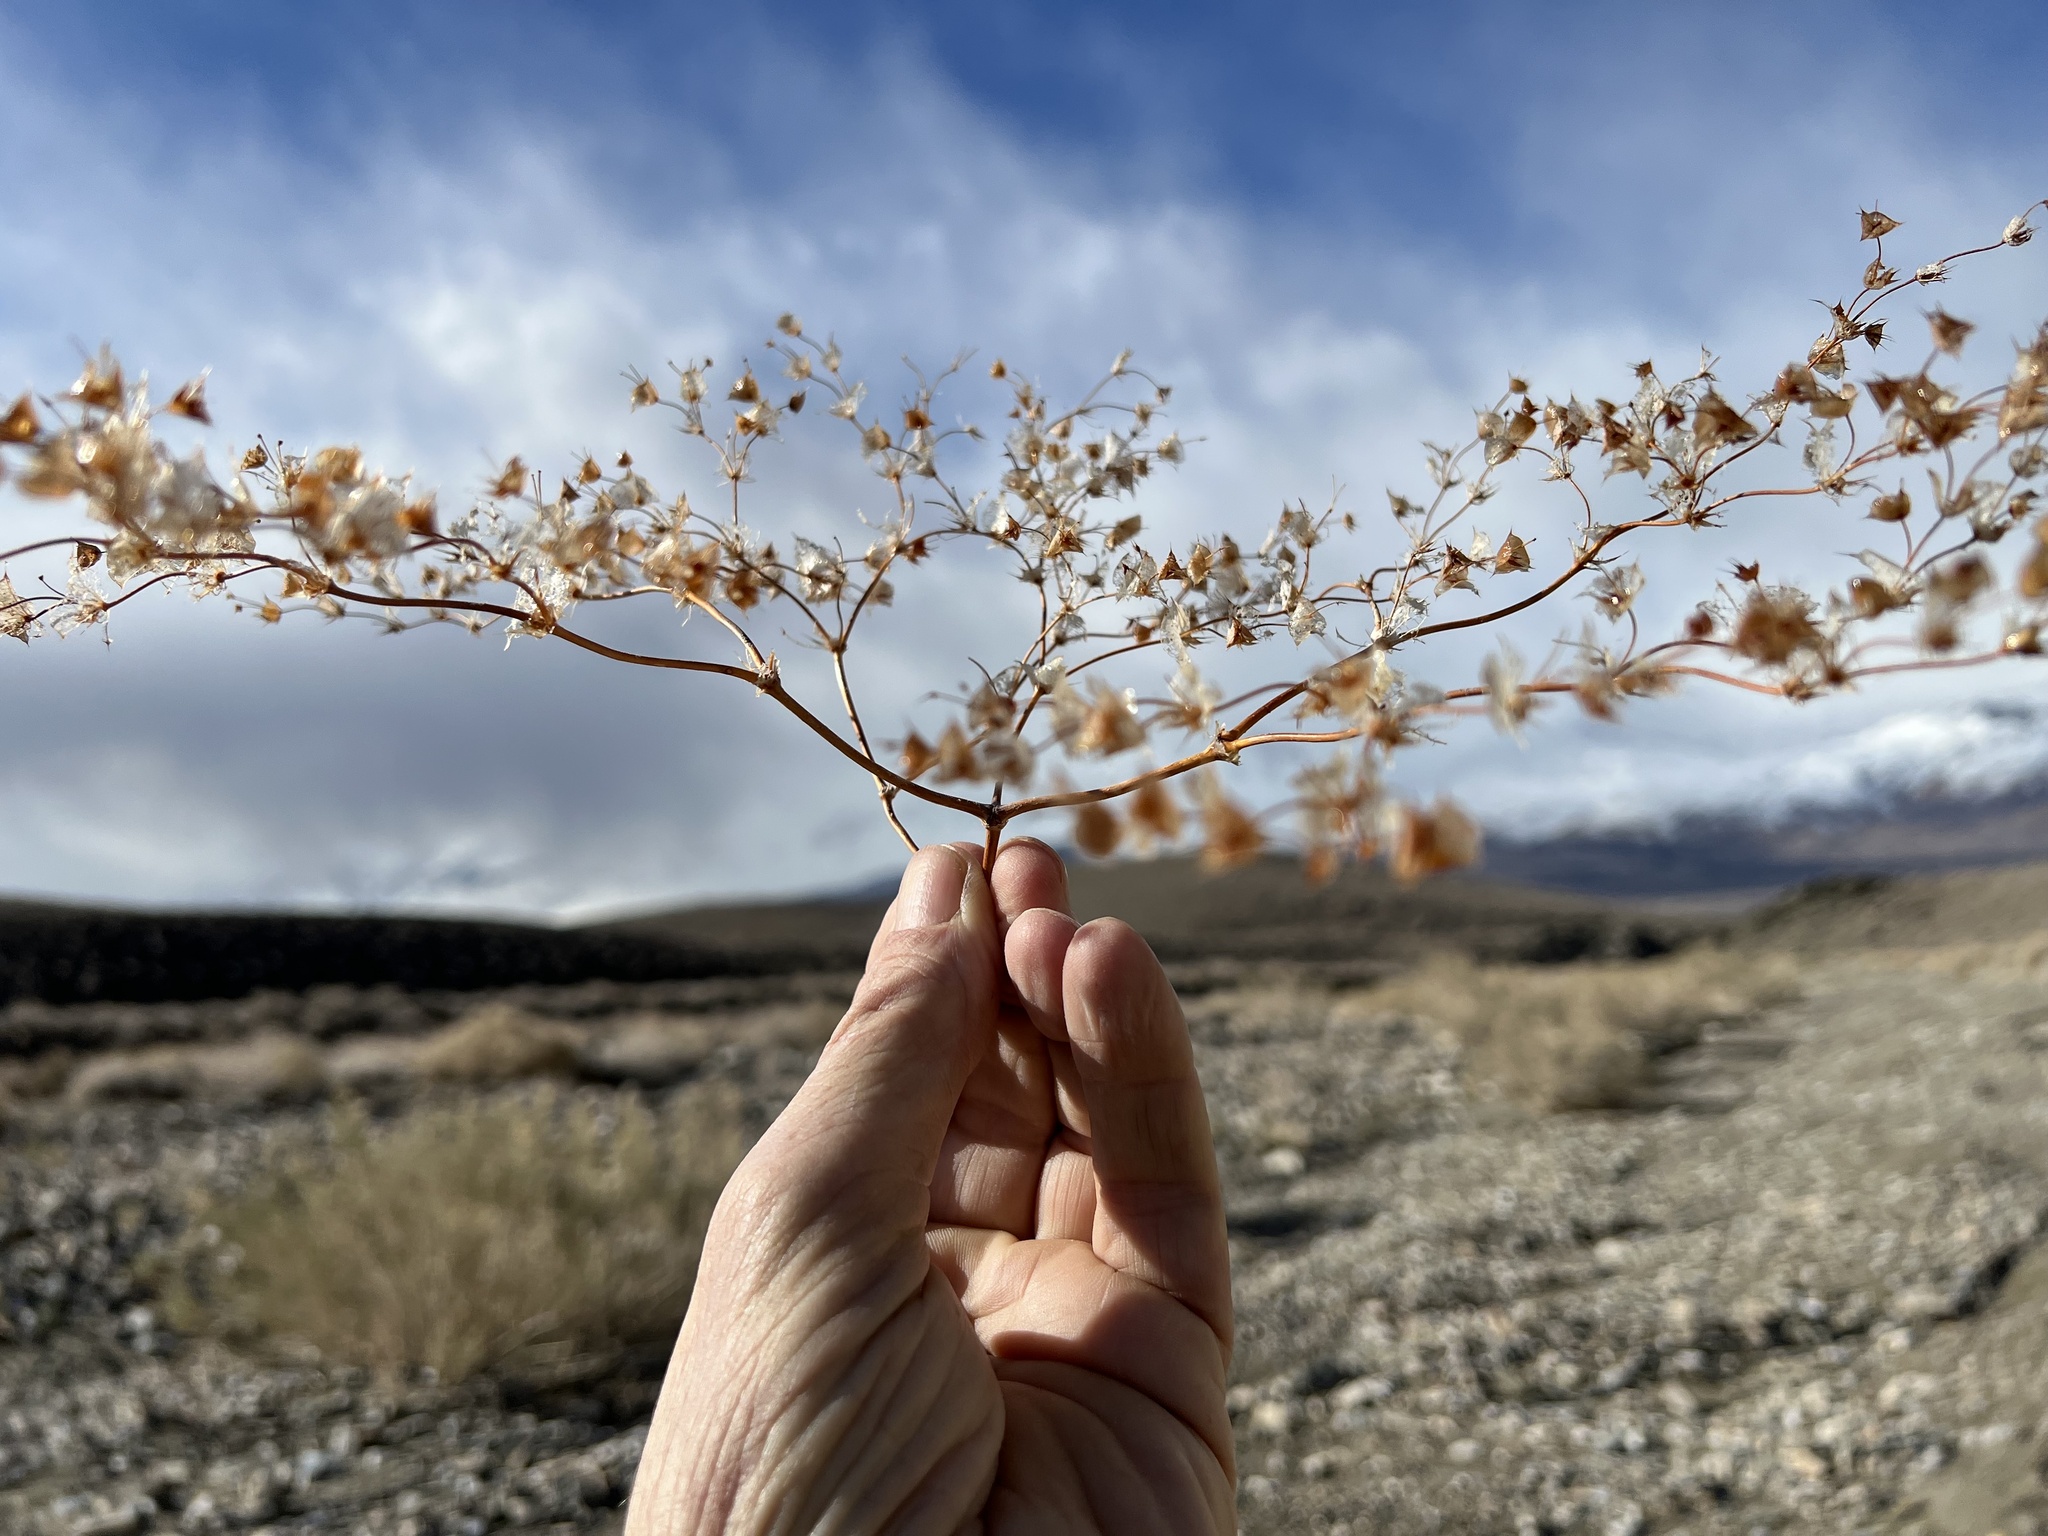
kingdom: Plantae
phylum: Tracheophyta
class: Magnoliopsida
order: Caryophyllales
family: Polygonaceae
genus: Oxytheca
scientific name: Oxytheca perfoliata
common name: Round-leaf puncturebract
